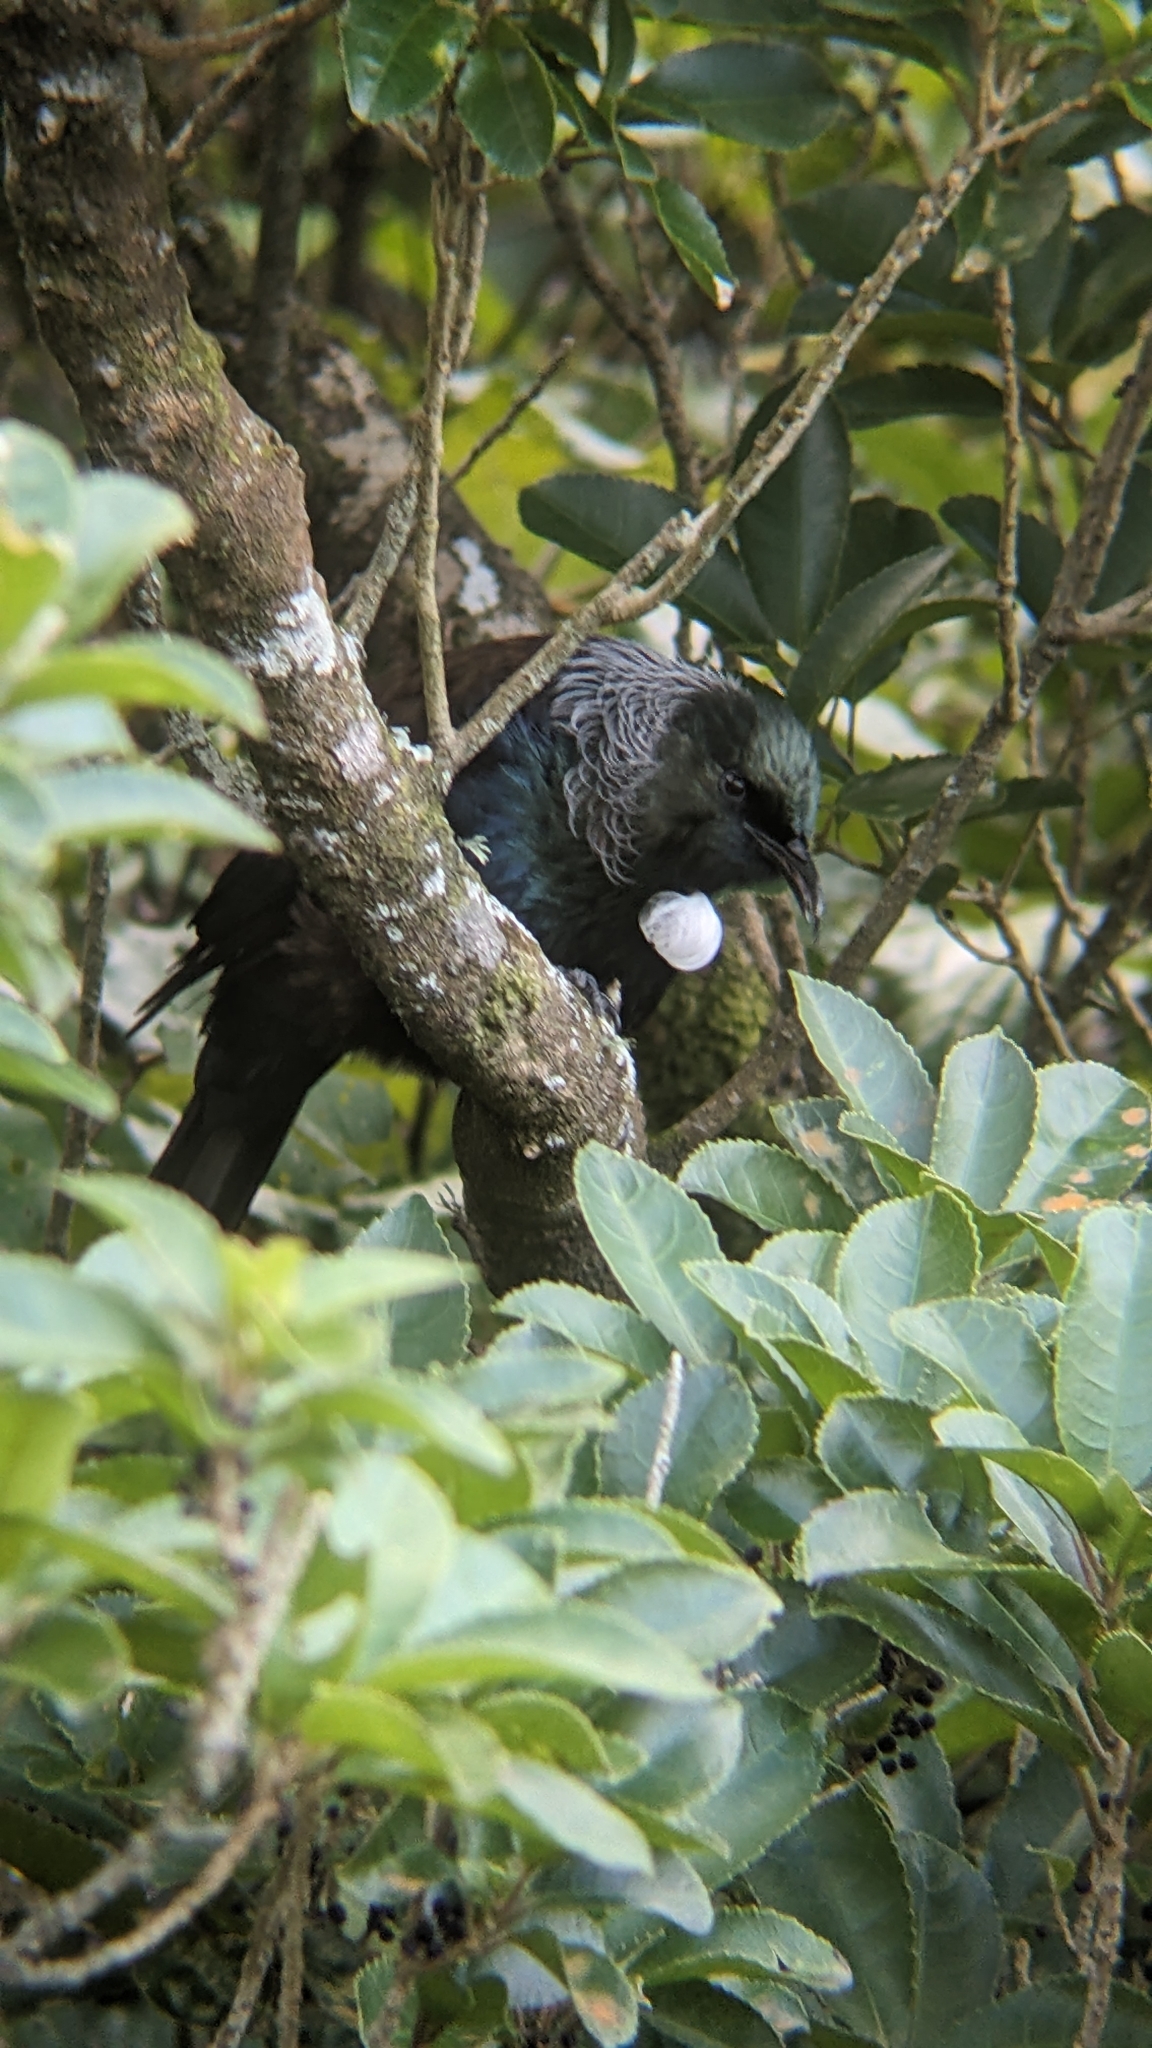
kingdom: Animalia
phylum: Chordata
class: Aves
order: Passeriformes
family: Meliphagidae
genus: Prosthemadera
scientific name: Prosthemadera novaeseelandiae
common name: Tui
